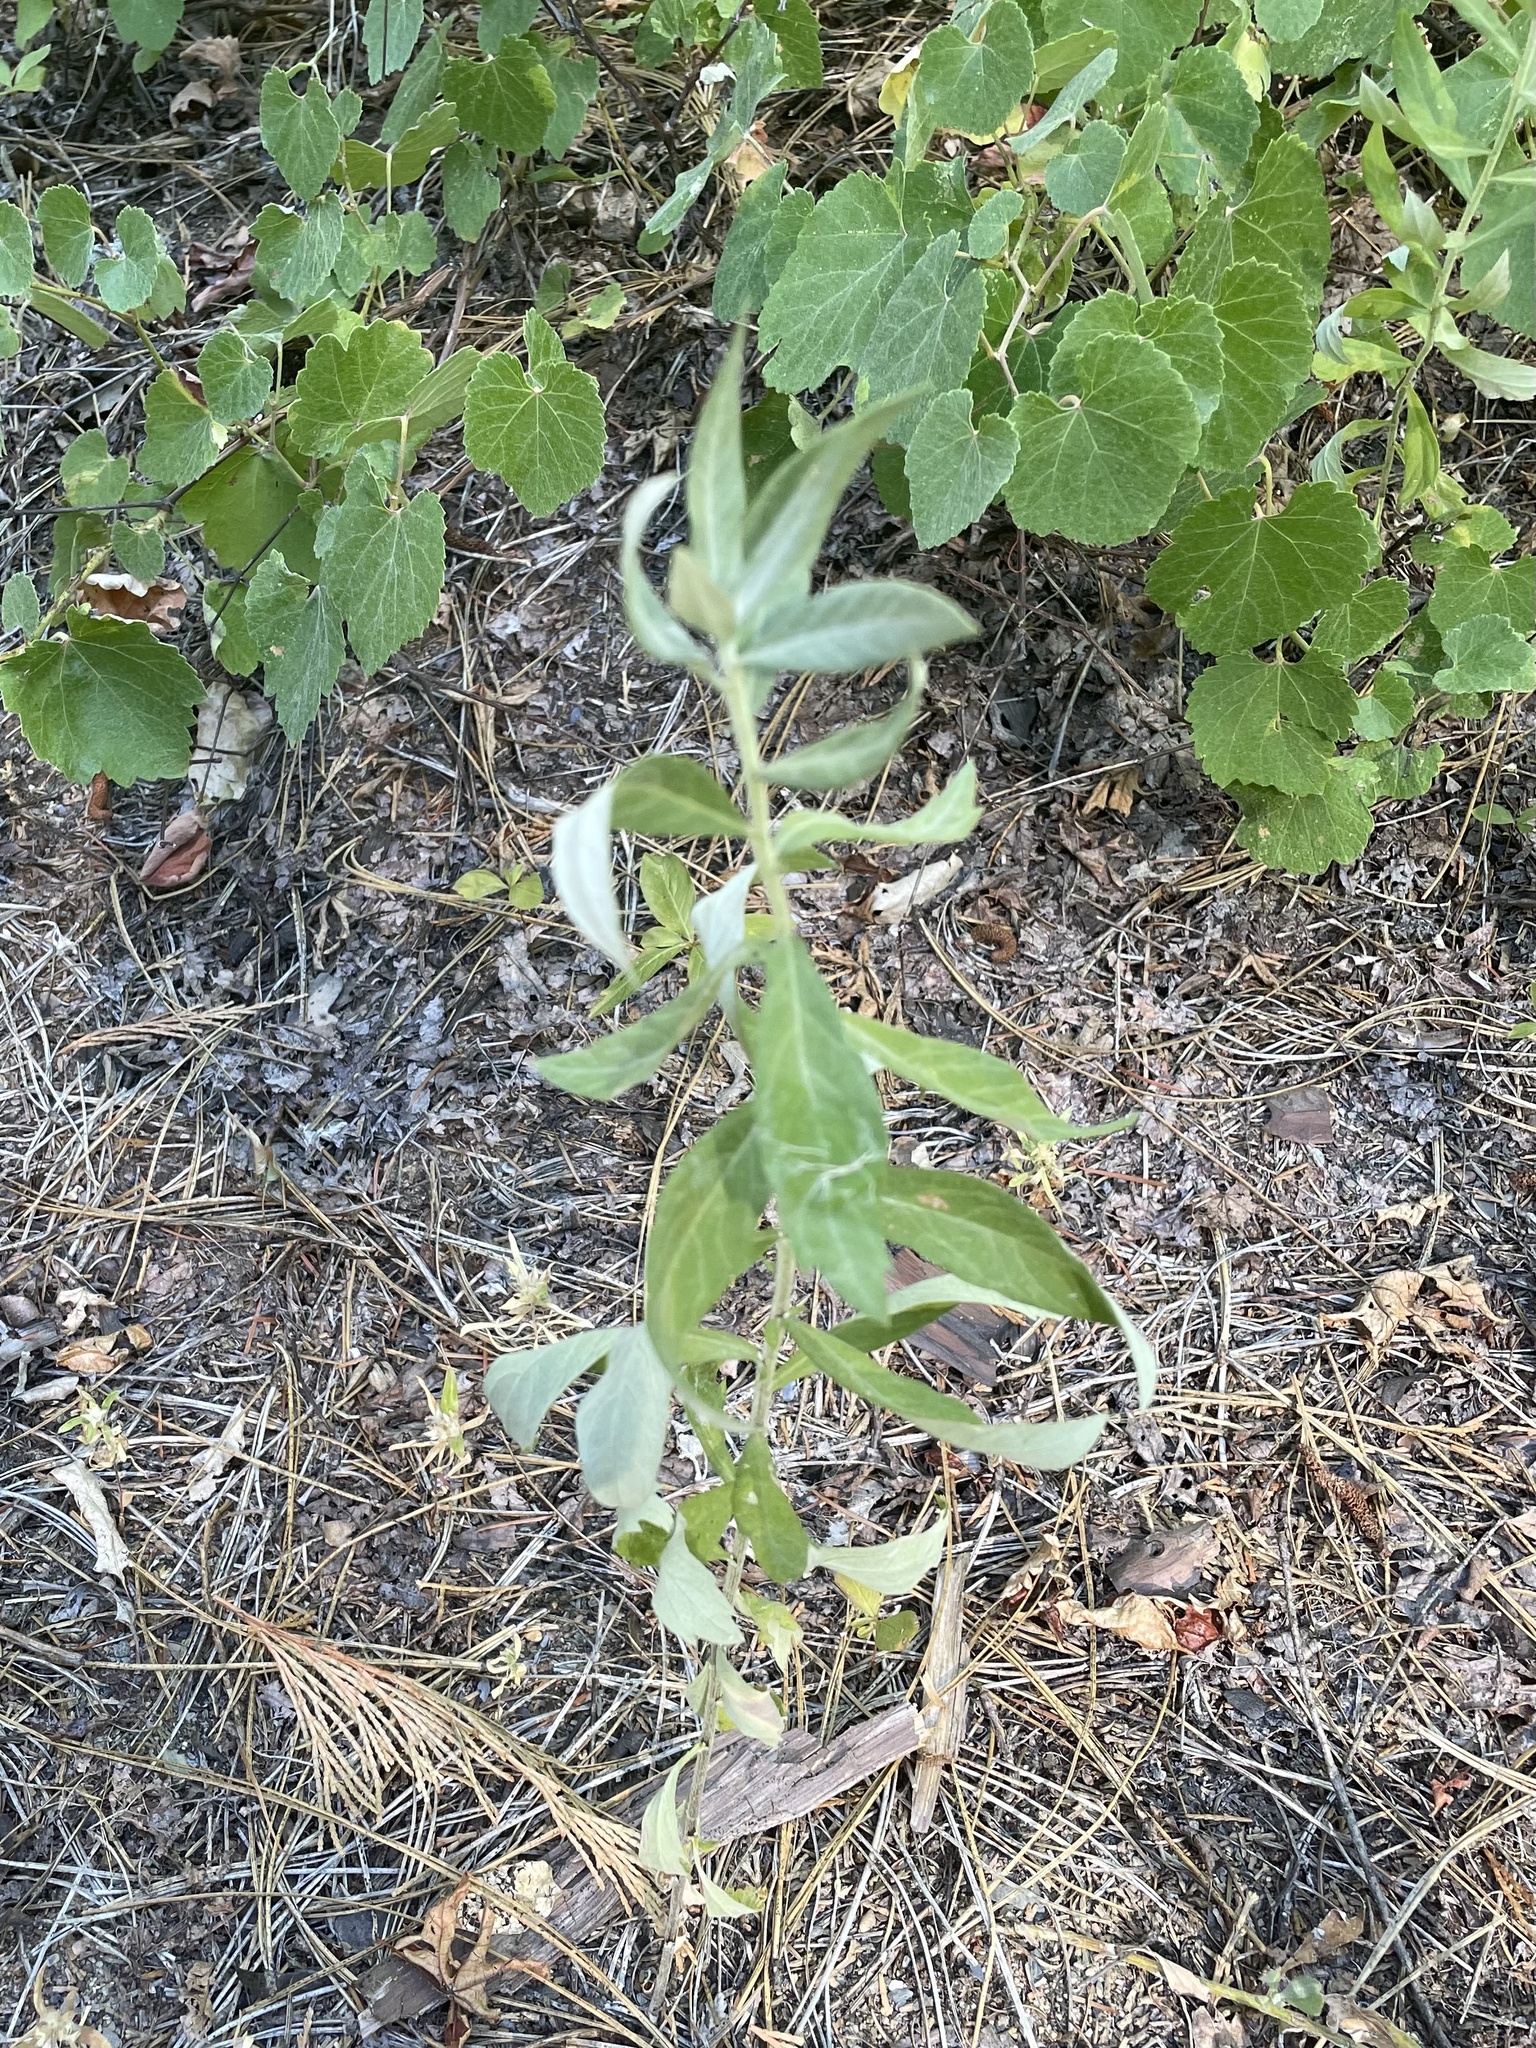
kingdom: Plantae
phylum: Tracheophyta
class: Magnoliopsida
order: Asterales
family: Asteraceae
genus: Artemisia
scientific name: Artemisia douglasiana
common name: Northwest mugwort
